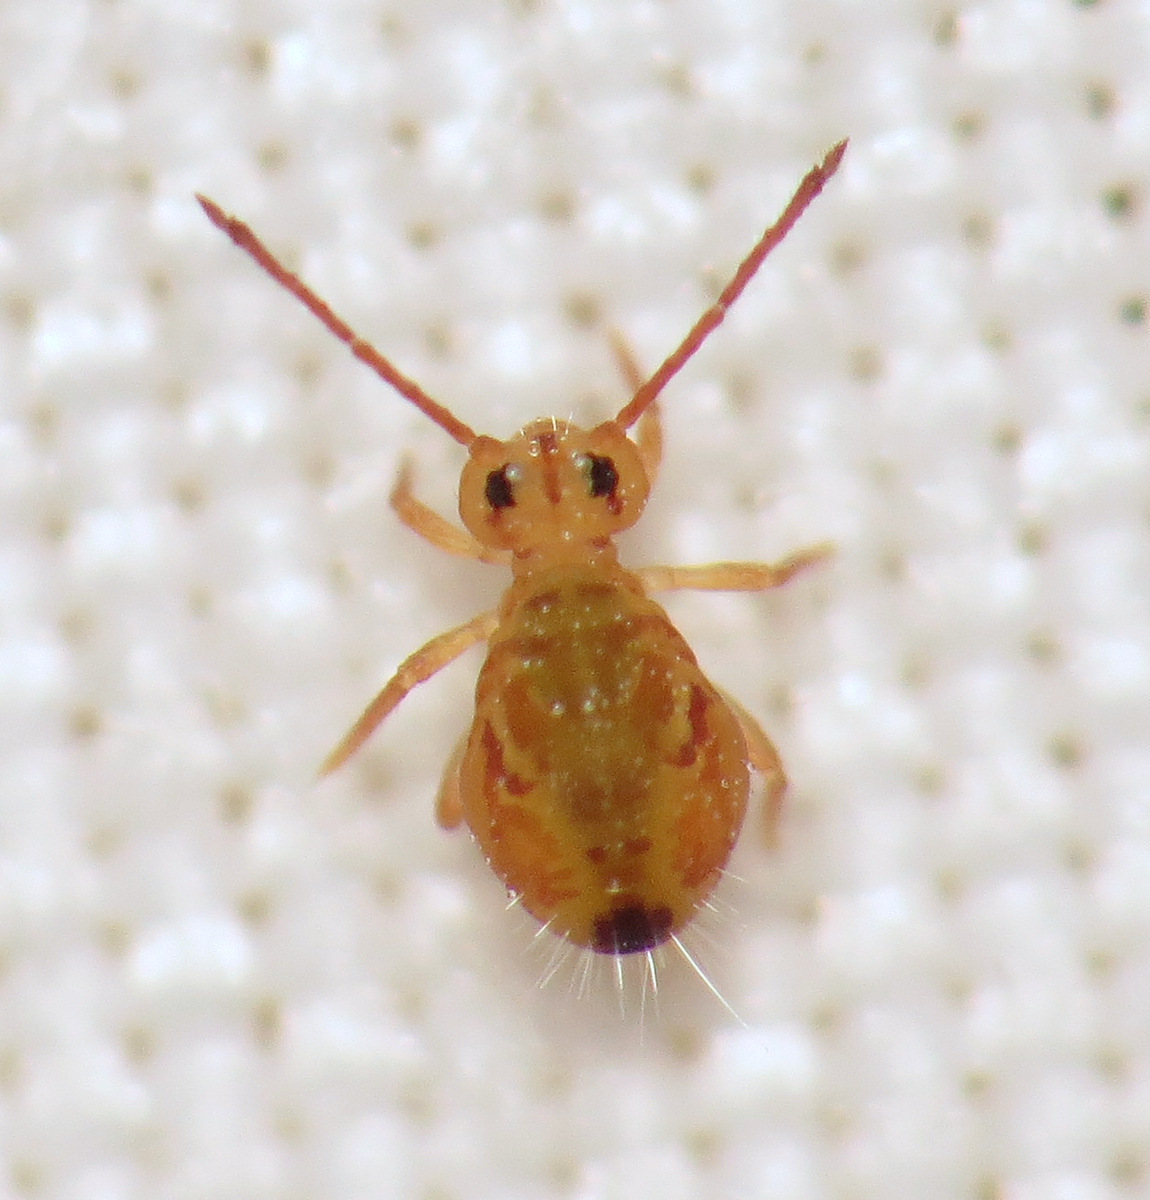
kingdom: Animalia
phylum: Arthropoda
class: Collembola
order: Symphypleona
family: Dicyrtomidae
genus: Dicyrtomina
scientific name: Dicyrtomina minuta
